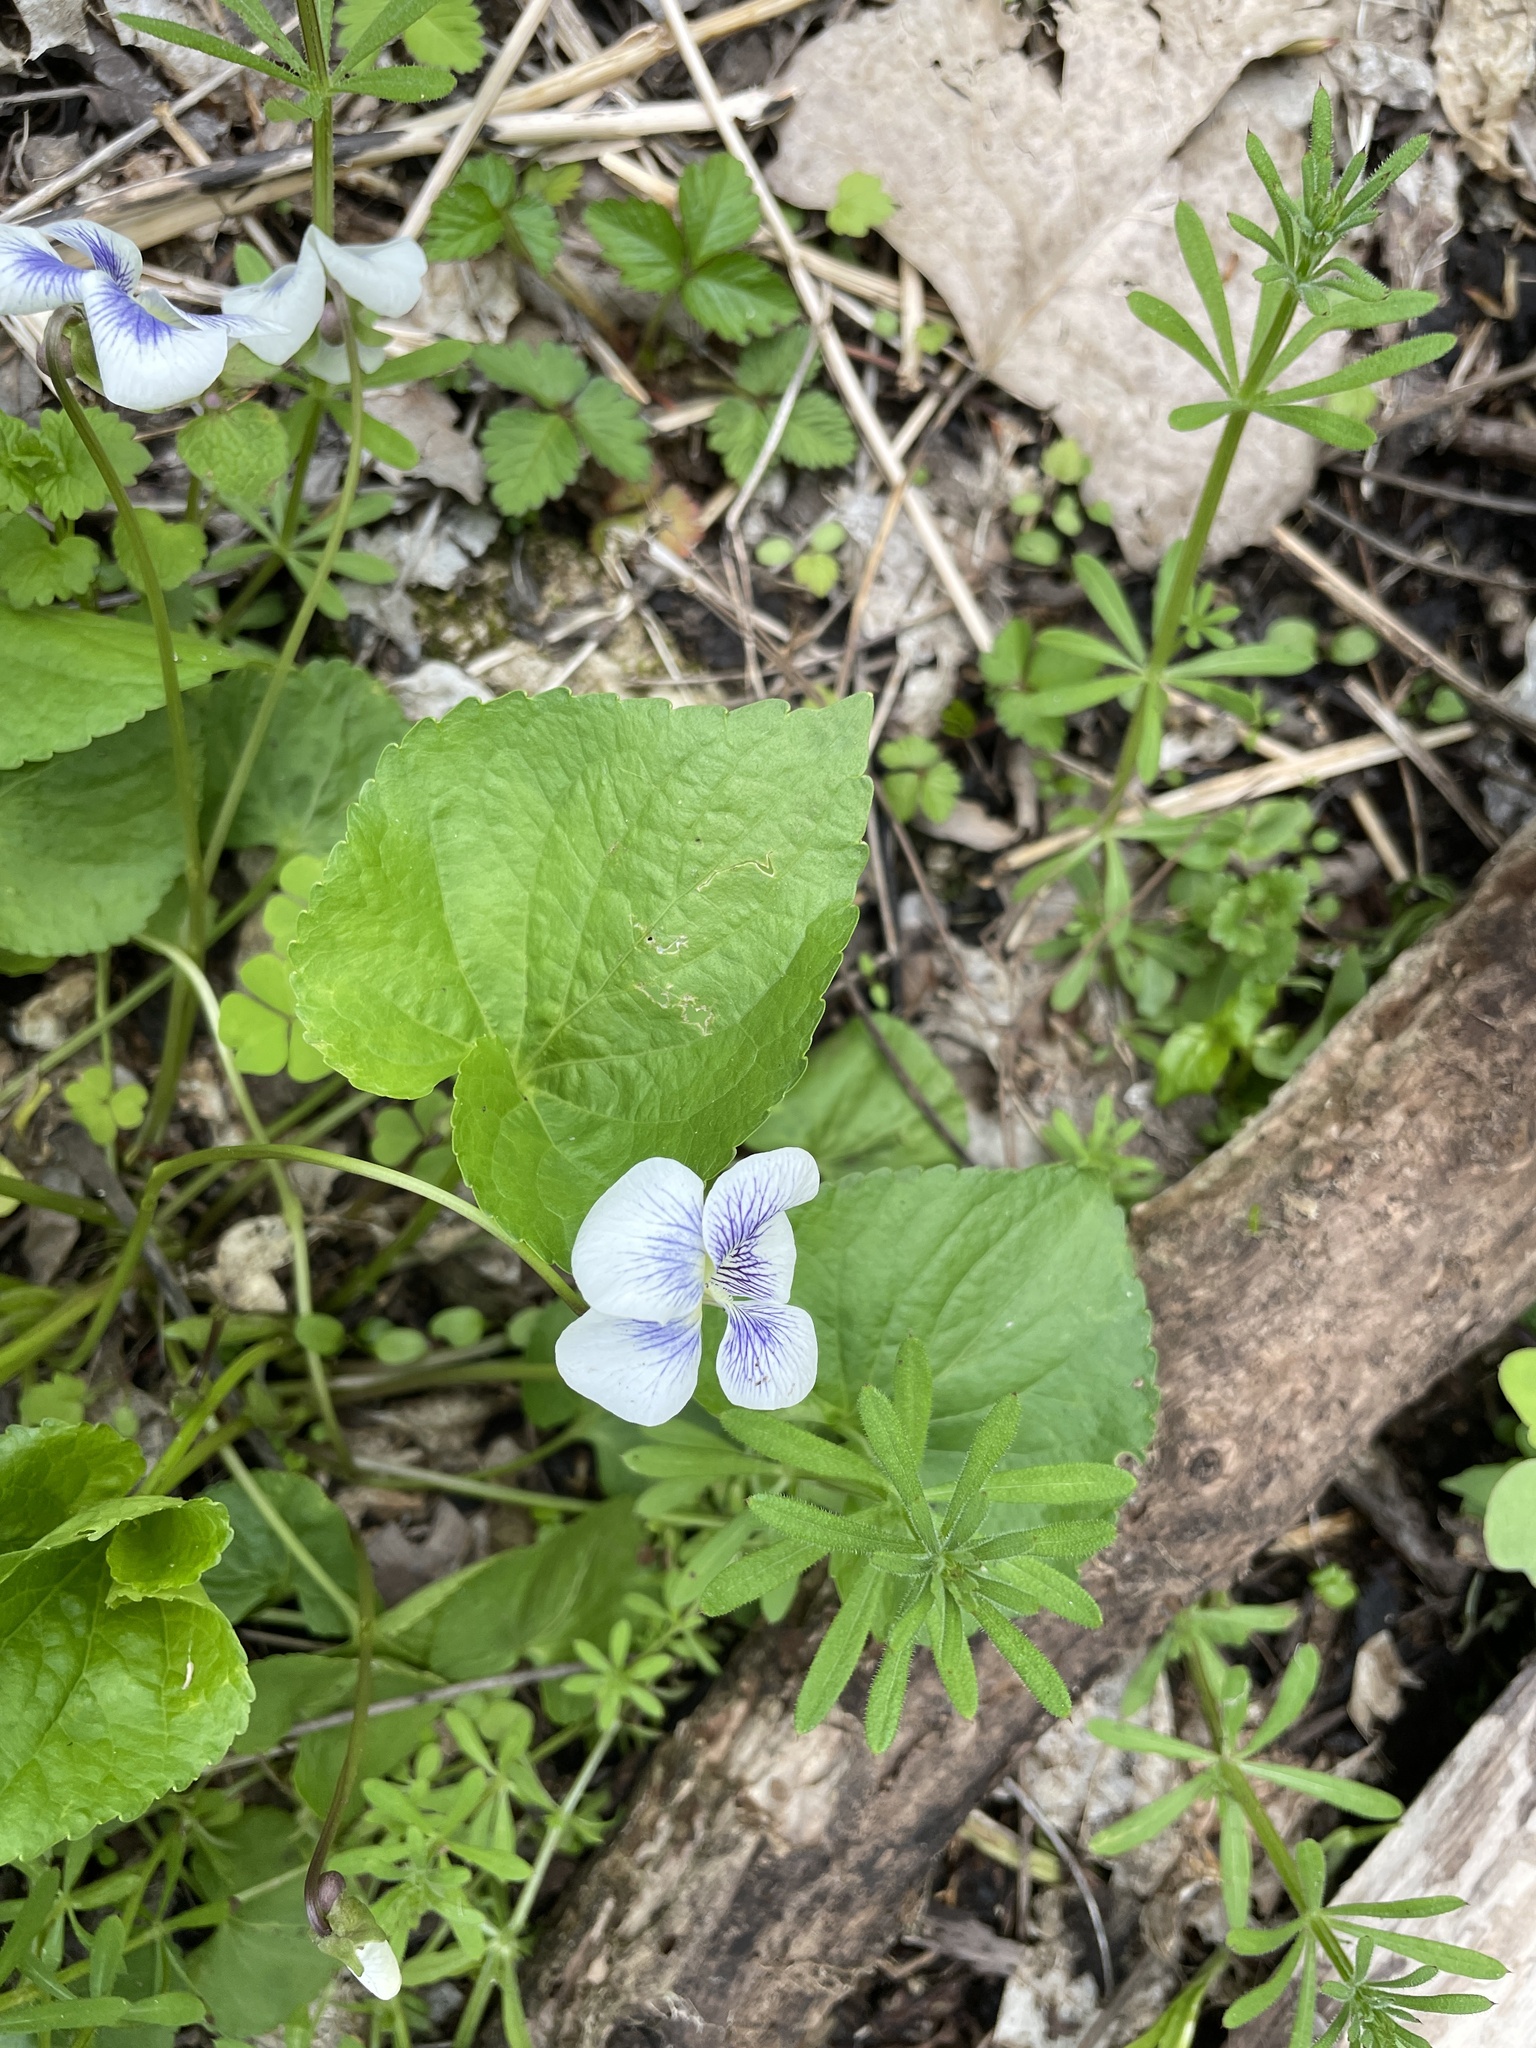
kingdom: Plantae
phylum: Tracheophyta
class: Magnoliopsida
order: Malpighiales
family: Violaceae
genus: Viola
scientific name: Viola sororia
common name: Dooryard violet
